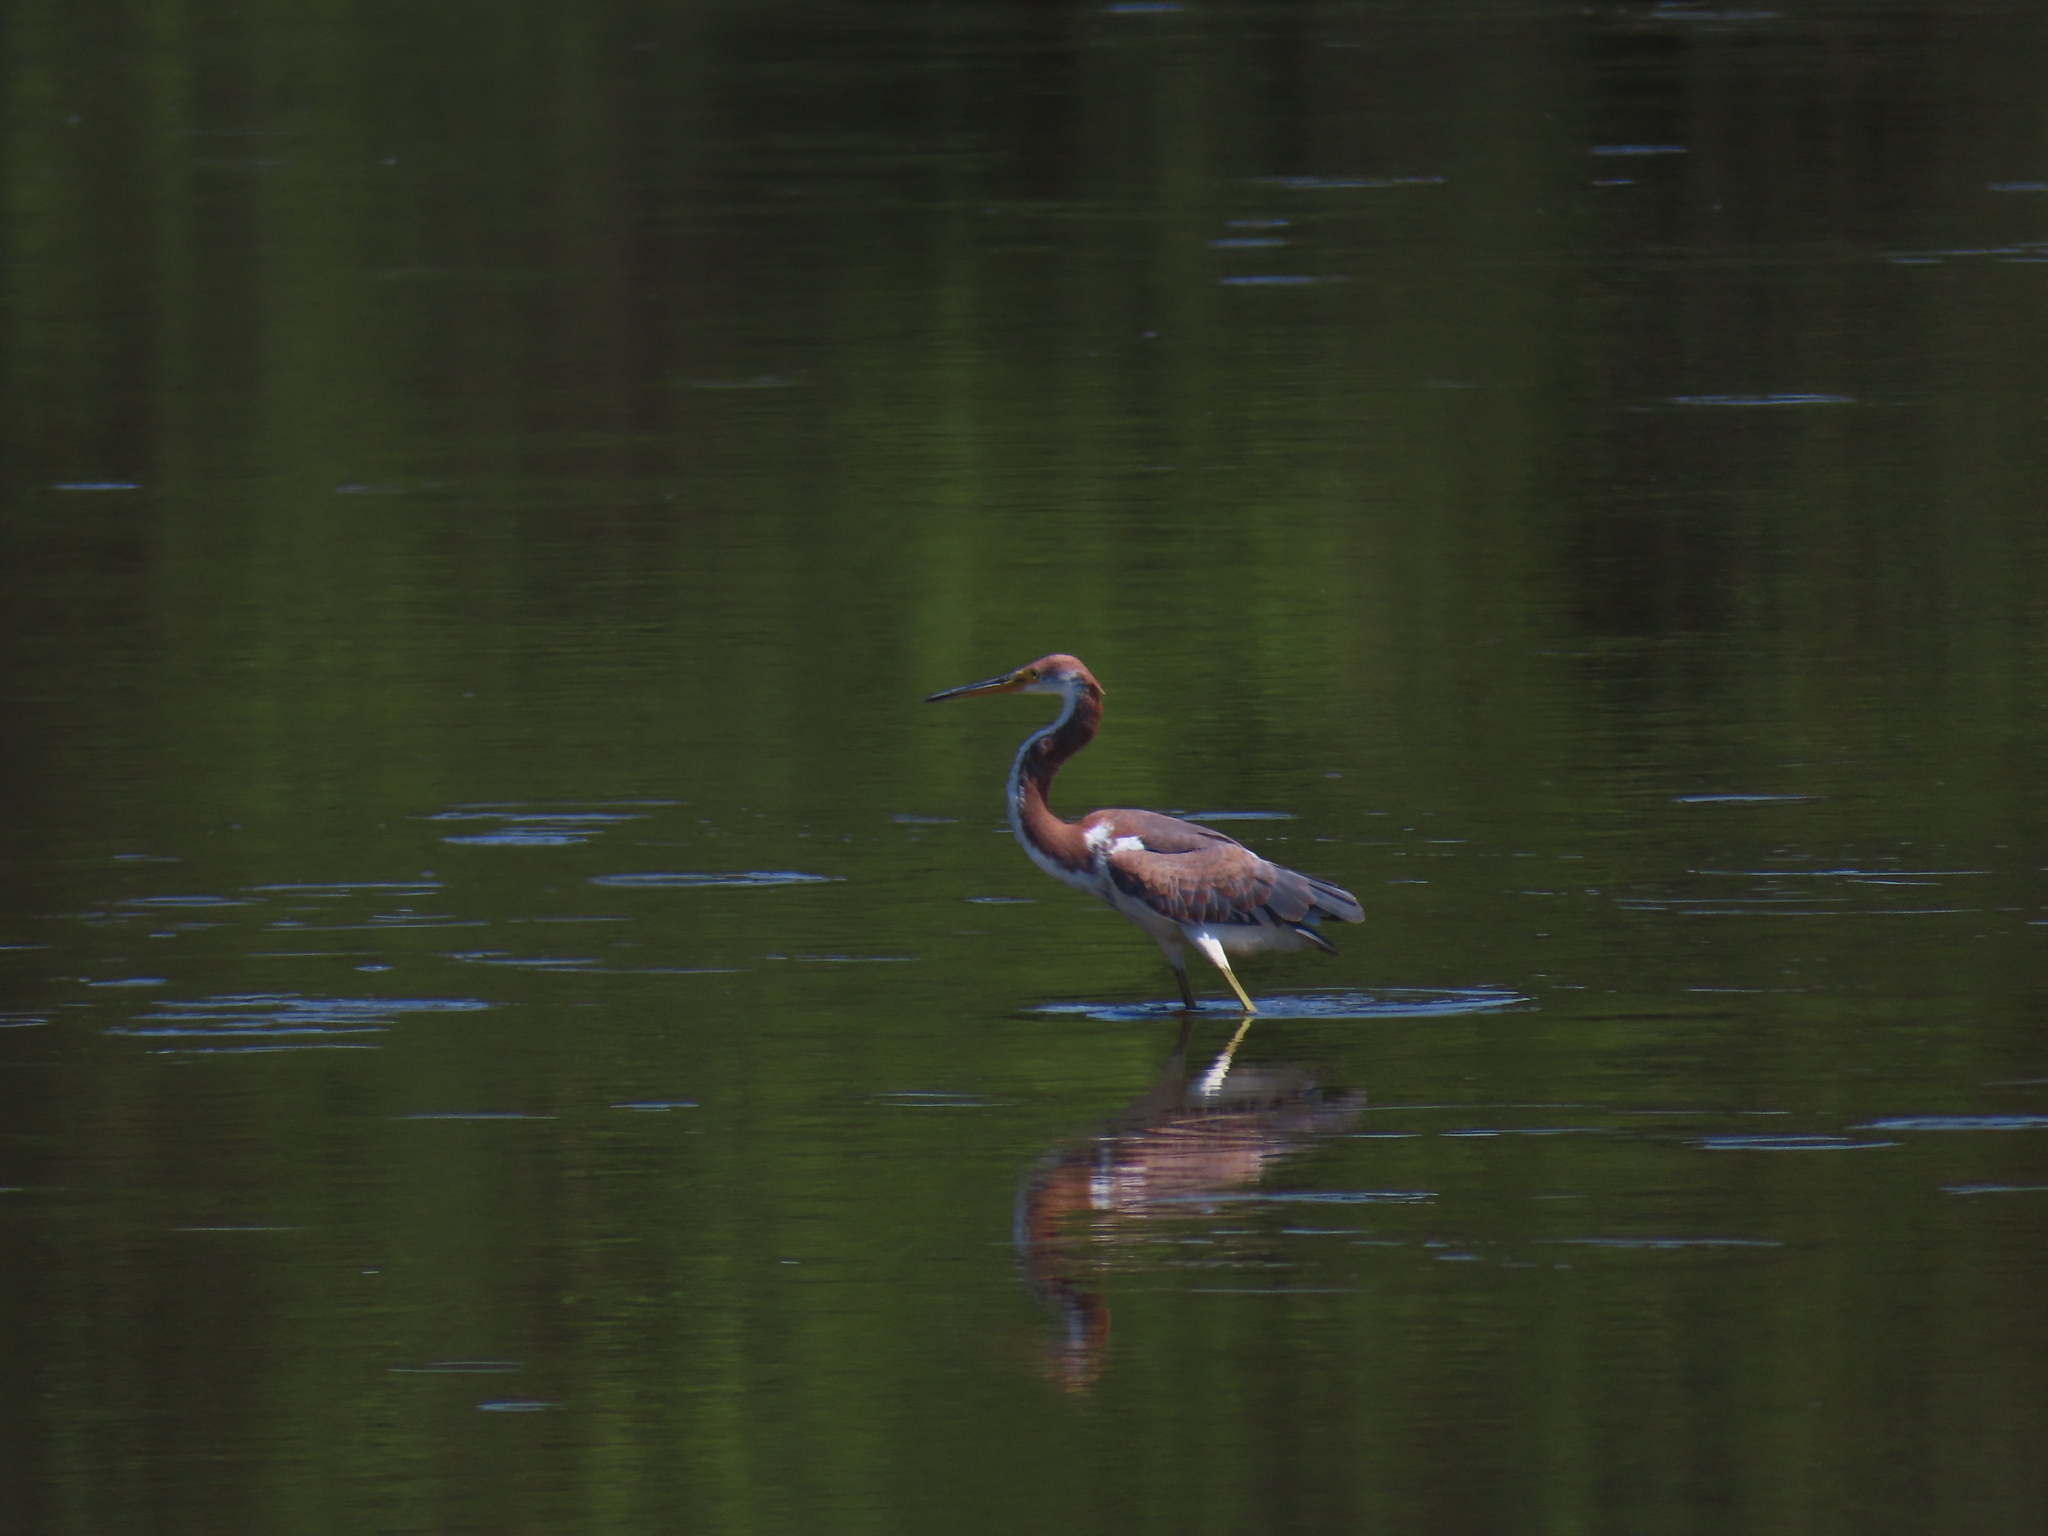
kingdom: Animalia
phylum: Chordata
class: Aves
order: Pelecaniformes
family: Ardeidae
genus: Egretta
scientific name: Egretta tricolor
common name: Tricolored heron
